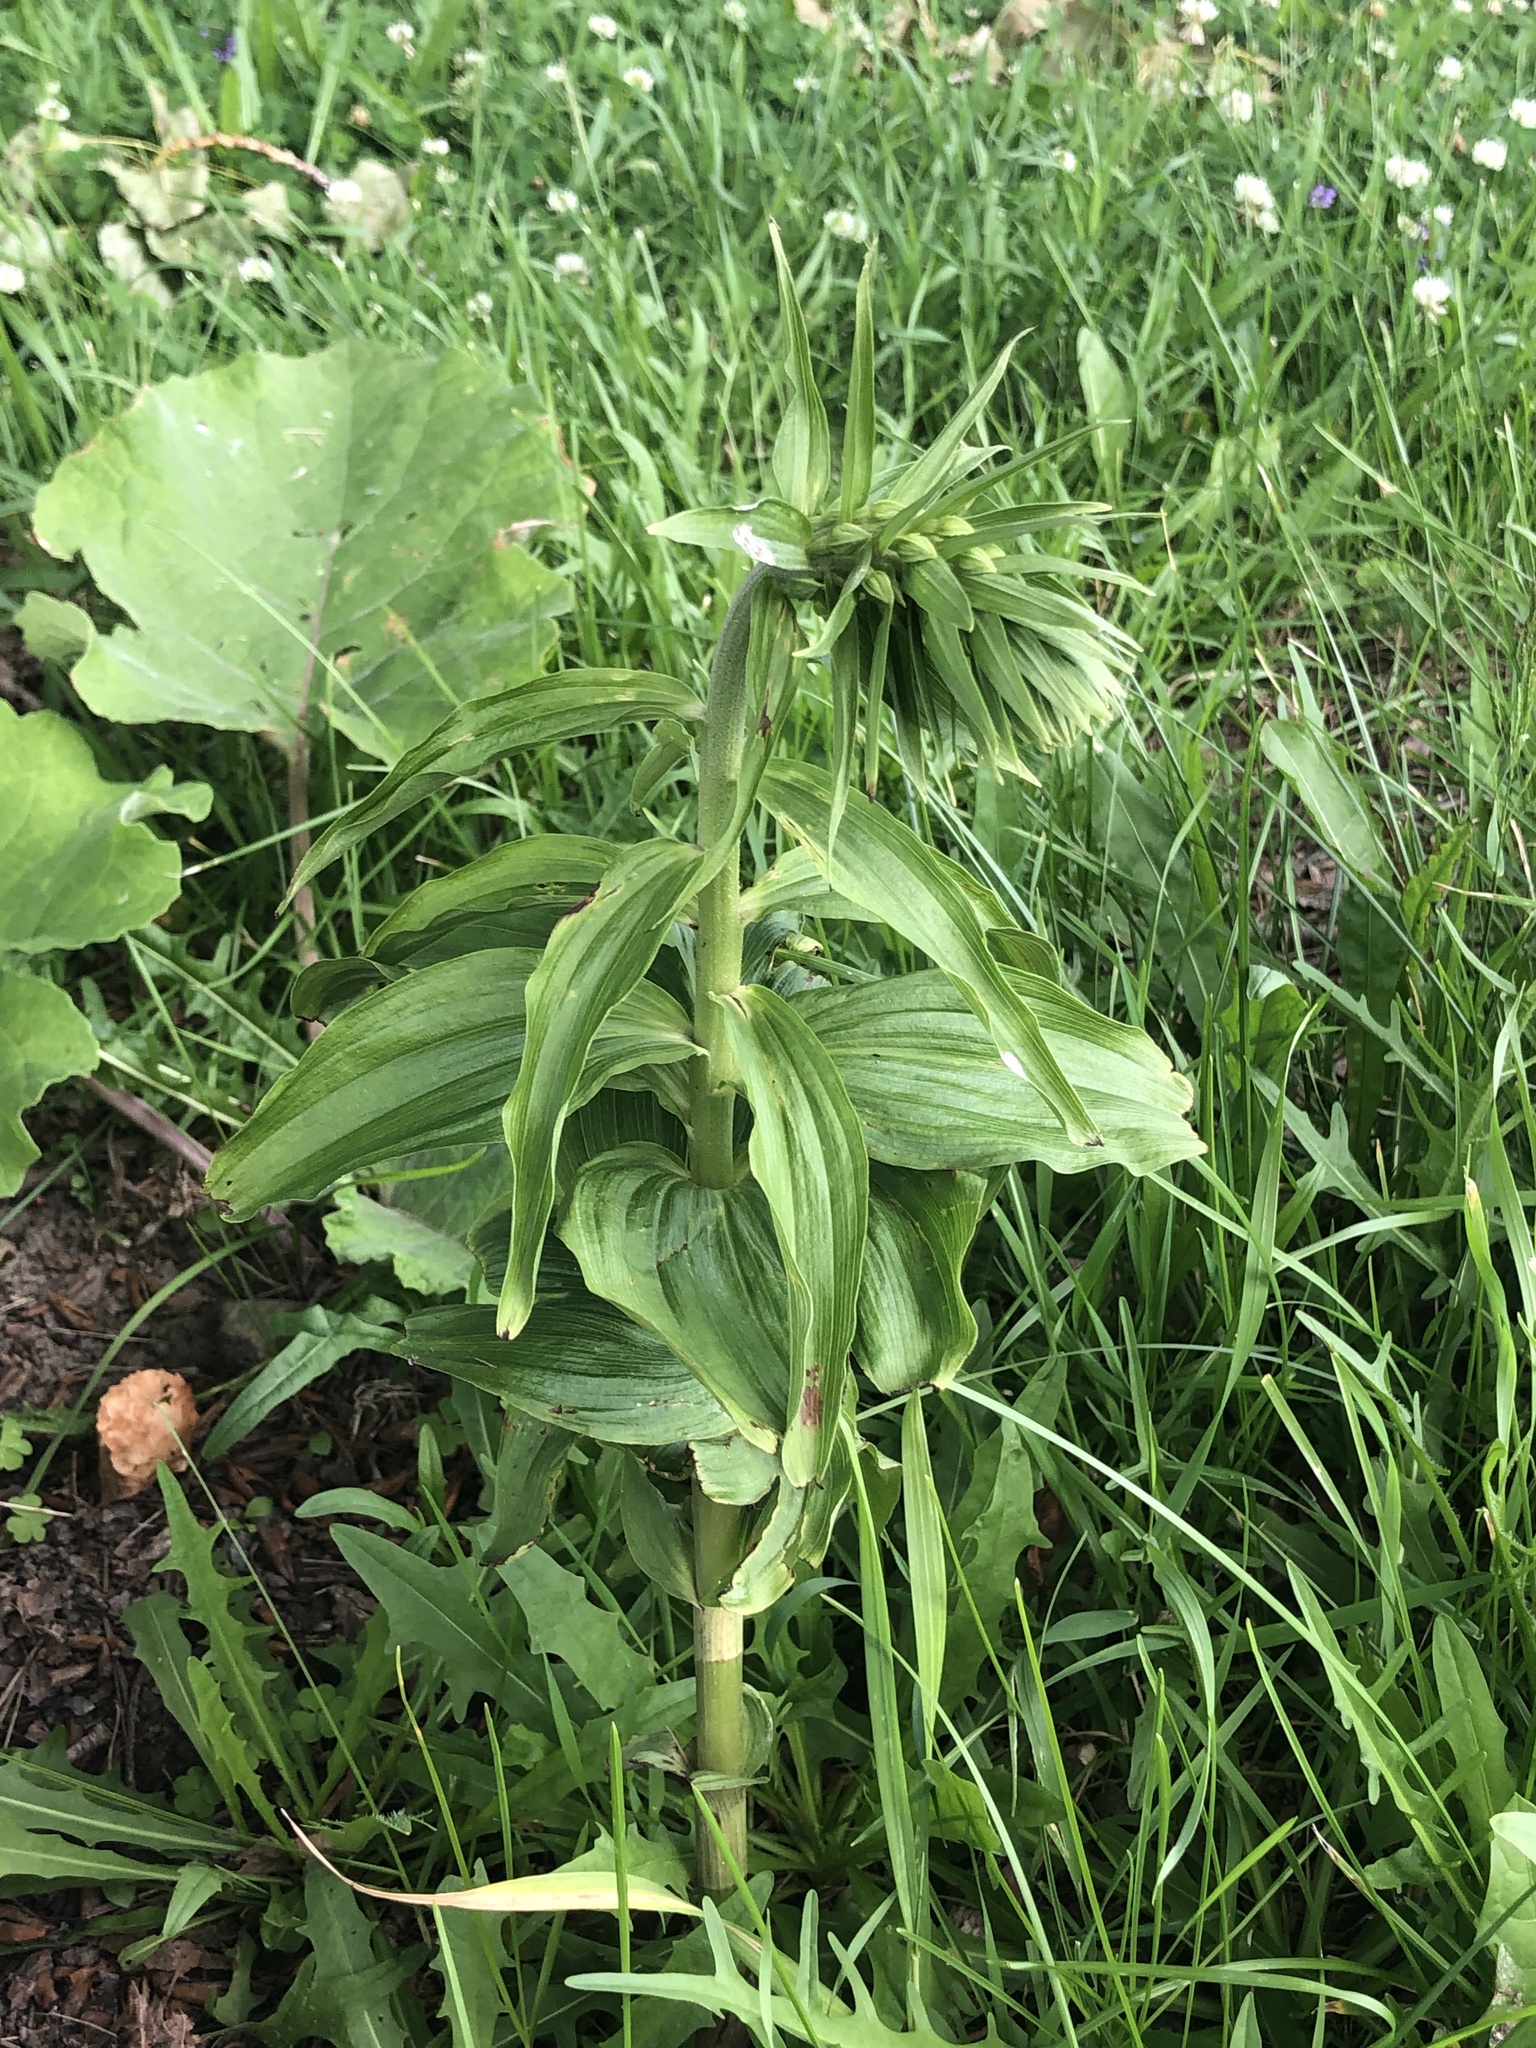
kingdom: Plantae
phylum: Tracheophyta
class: Liliopsida
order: Asparagales
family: Orchidaceae
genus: Epipactis
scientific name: Epipactis helleborine
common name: Broad-leaved helleborine
